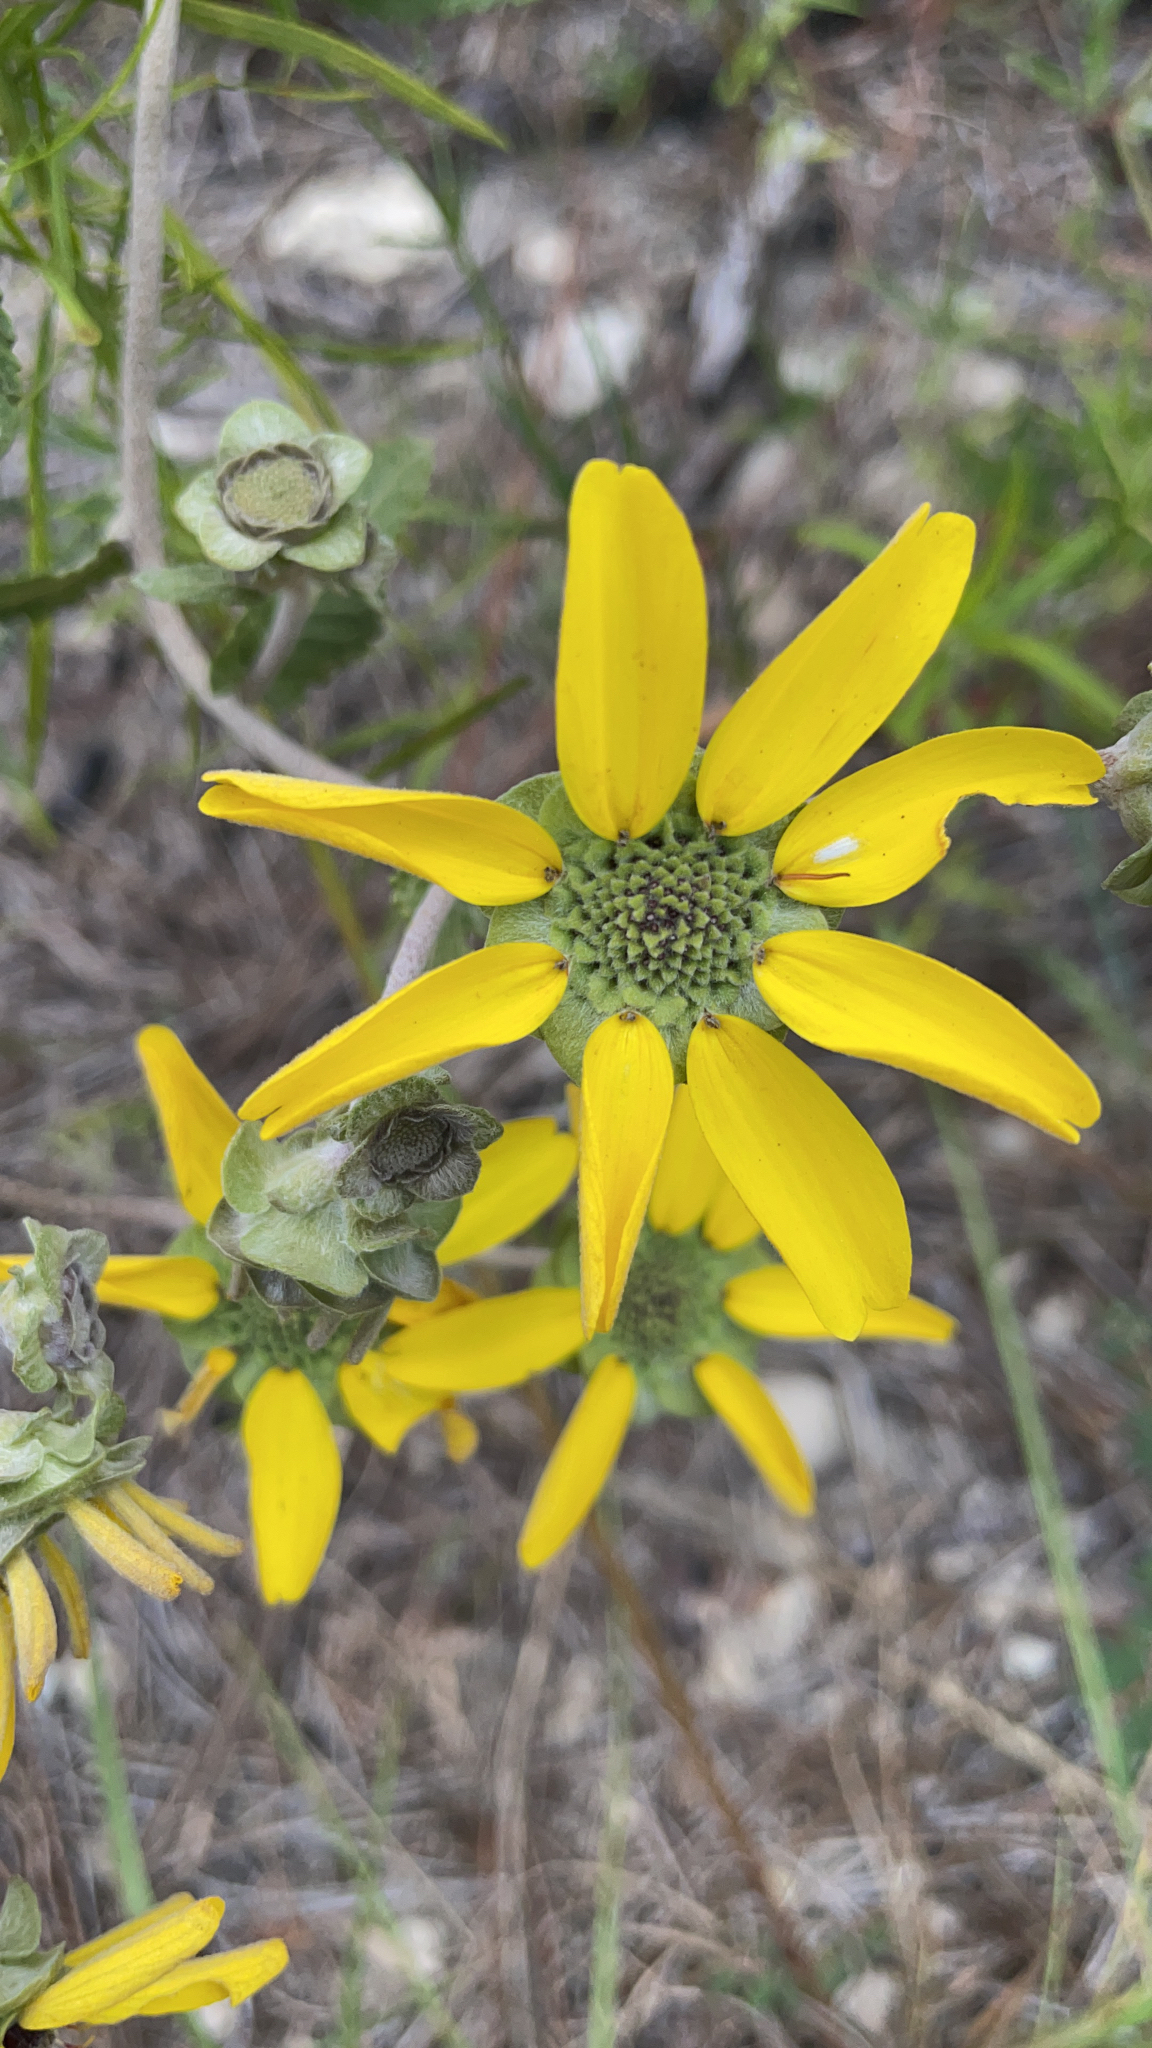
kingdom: Plantae
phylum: Tracheophyta
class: Magnoliopsida
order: Asterales
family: Asteraceae
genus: Berlandiera
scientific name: Berlandiera pumila
